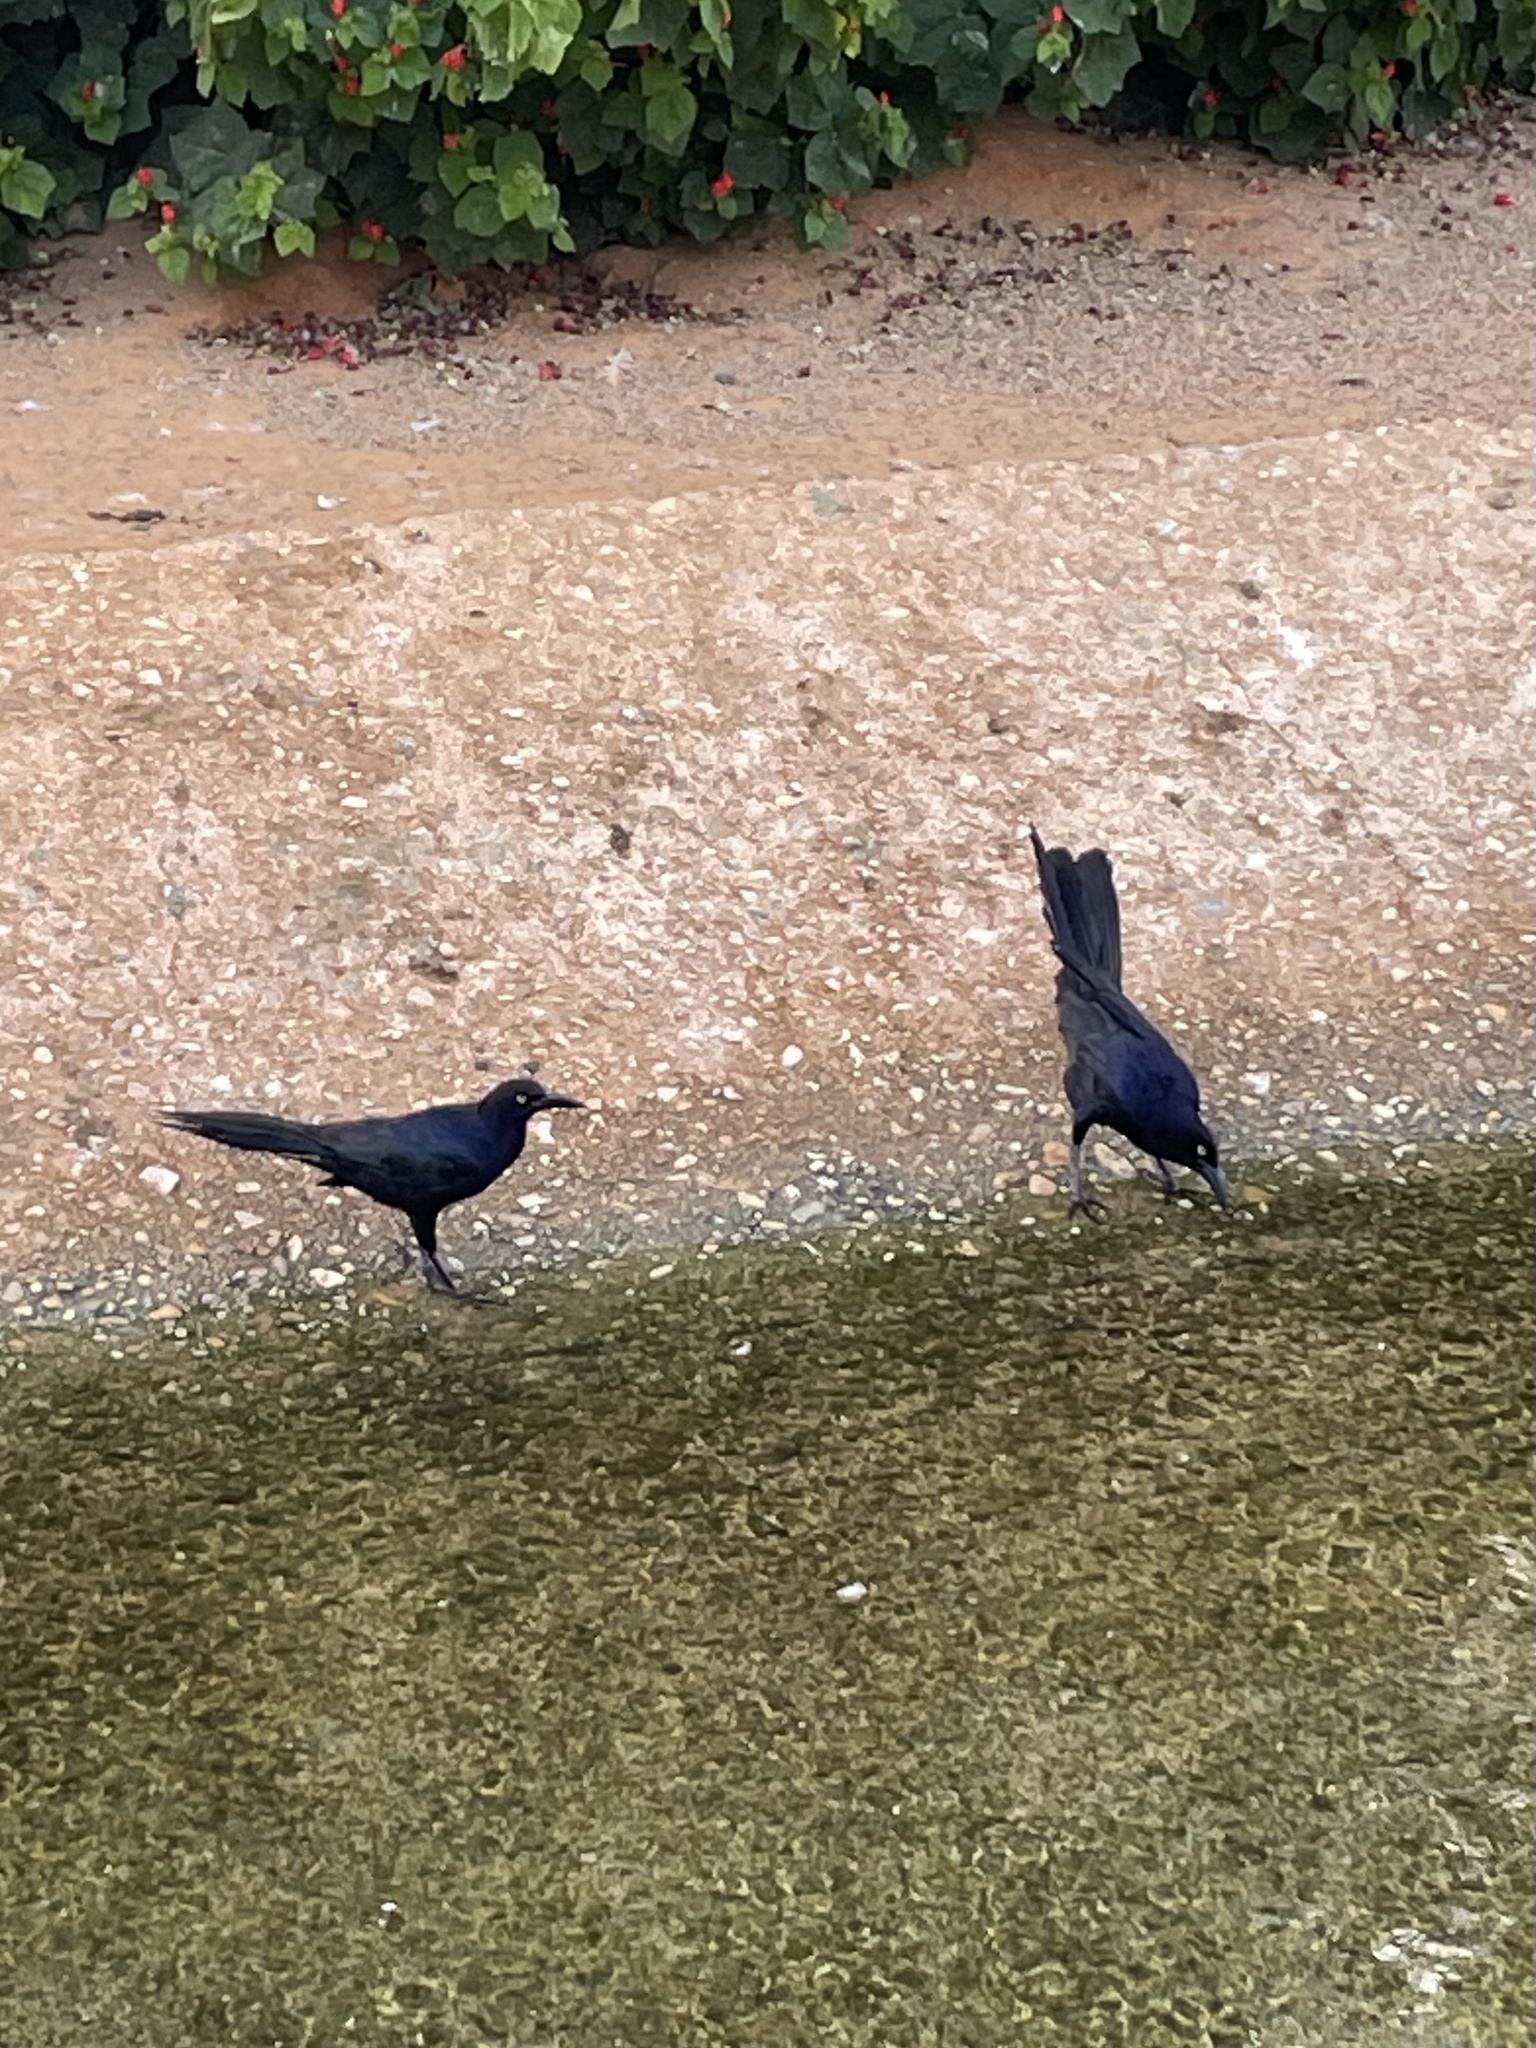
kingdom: Animalia
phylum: Chordata
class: Aves
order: Passeriformes
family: Icteridae
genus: Quiscalus
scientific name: Quiscalus mexicanus
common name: Great-tailed grackle
